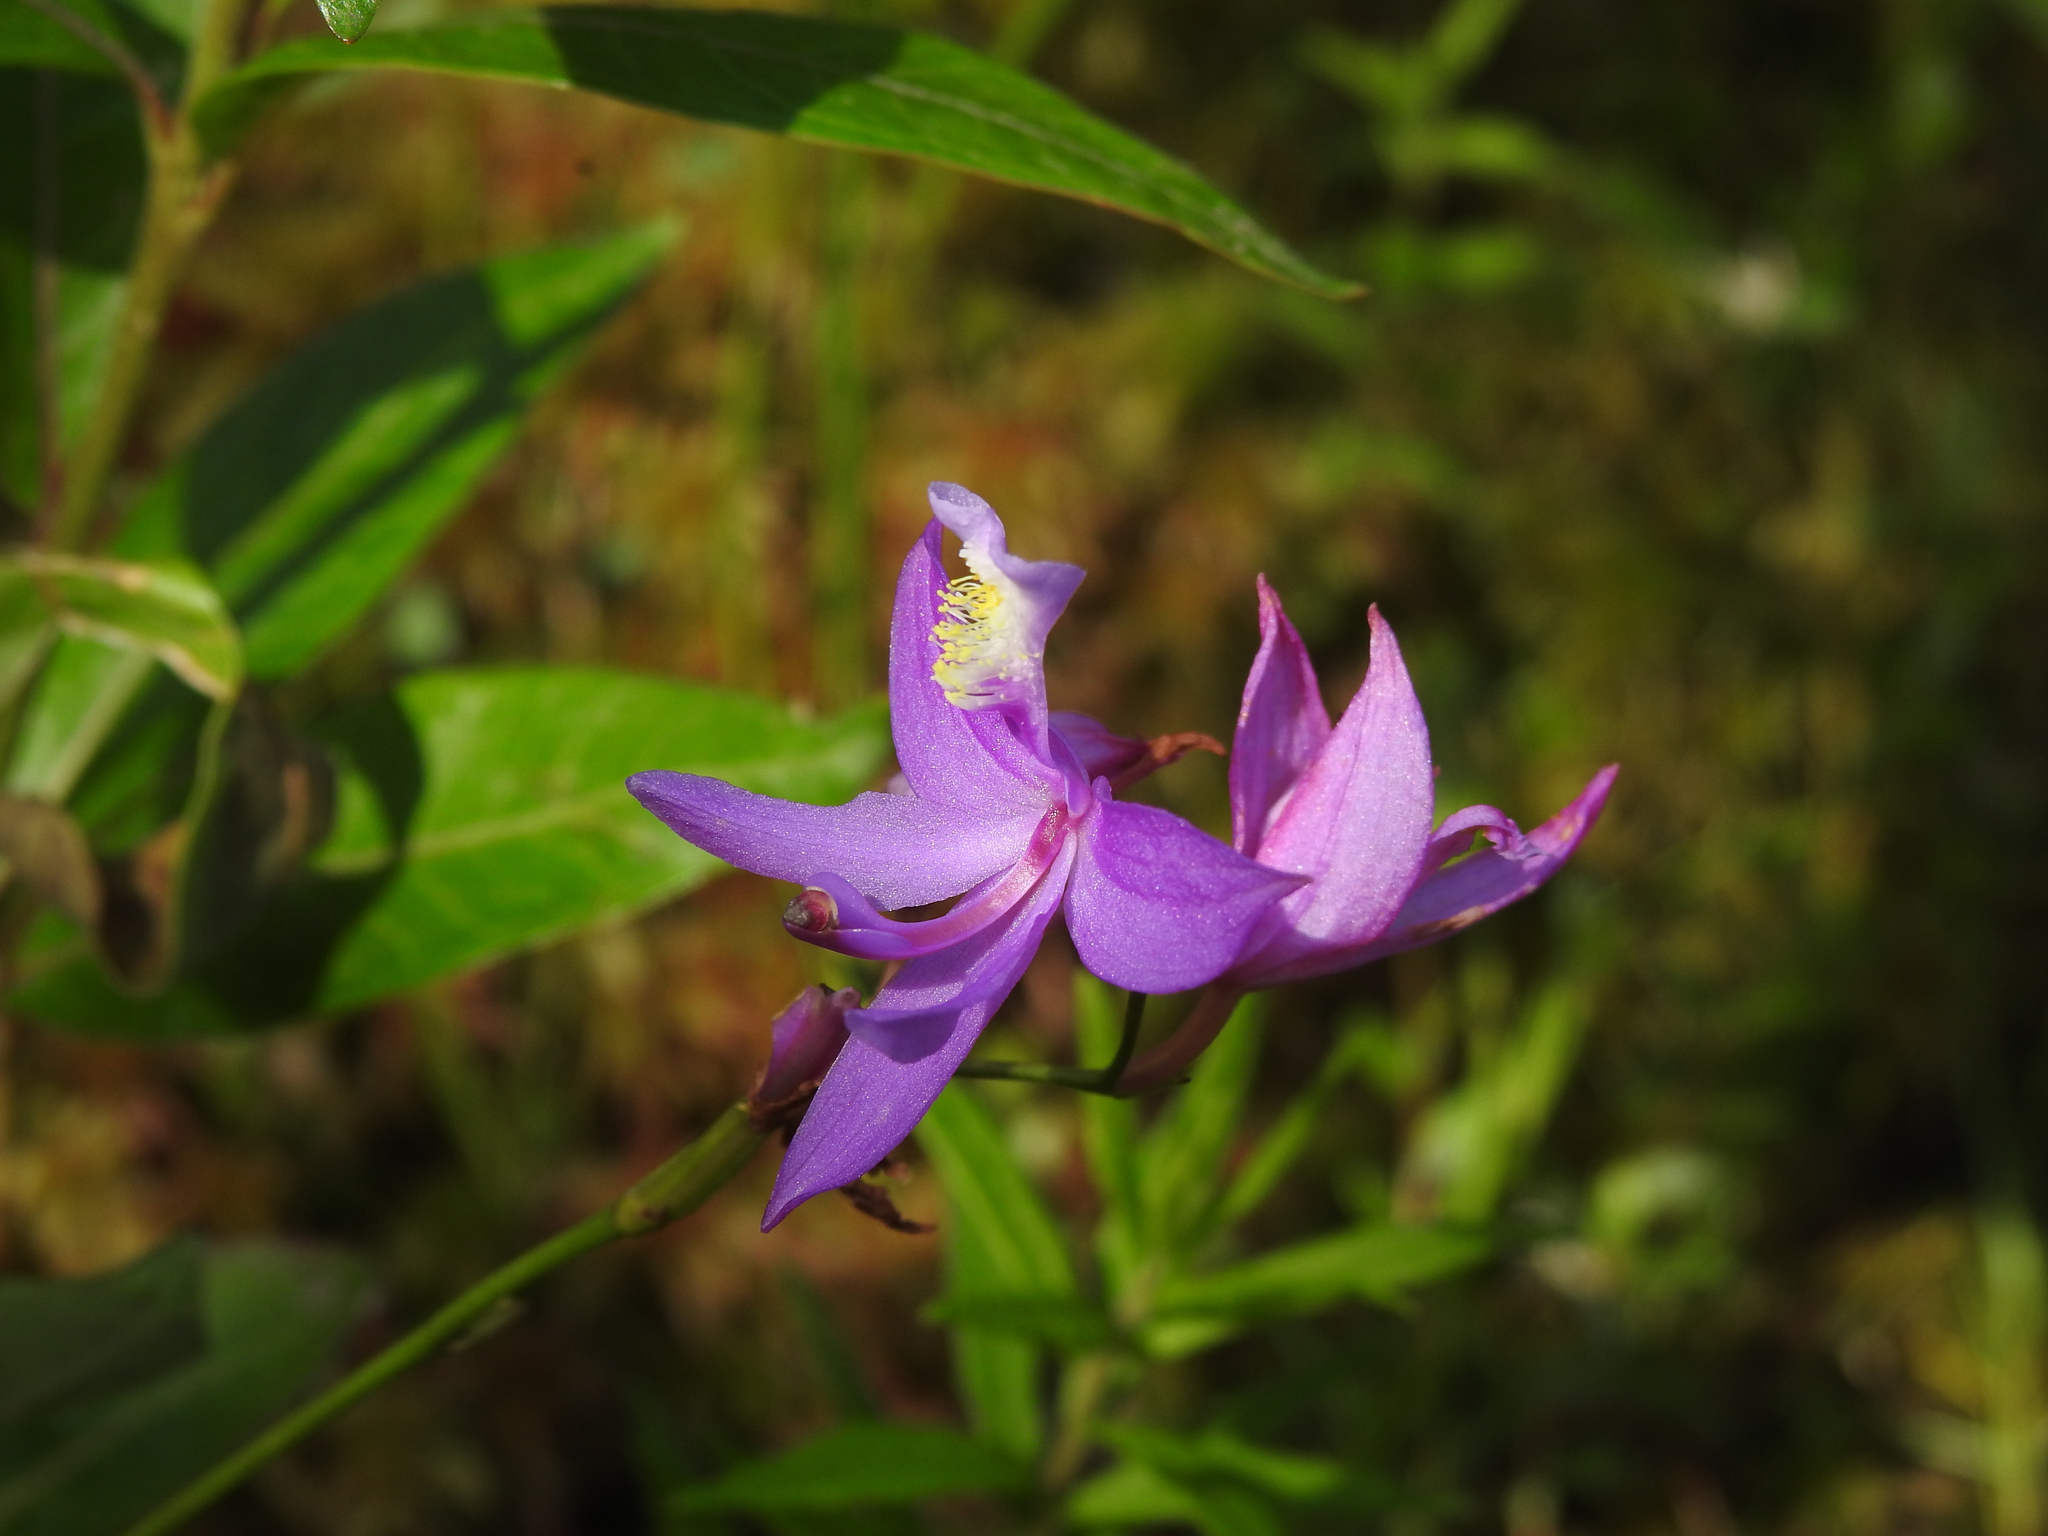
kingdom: Plantae
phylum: Tracheophyta
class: Liliopsida
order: Asparagales
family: Orchidaceae
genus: Calopogon
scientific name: Calopogon tuberosus
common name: Grass-pink
